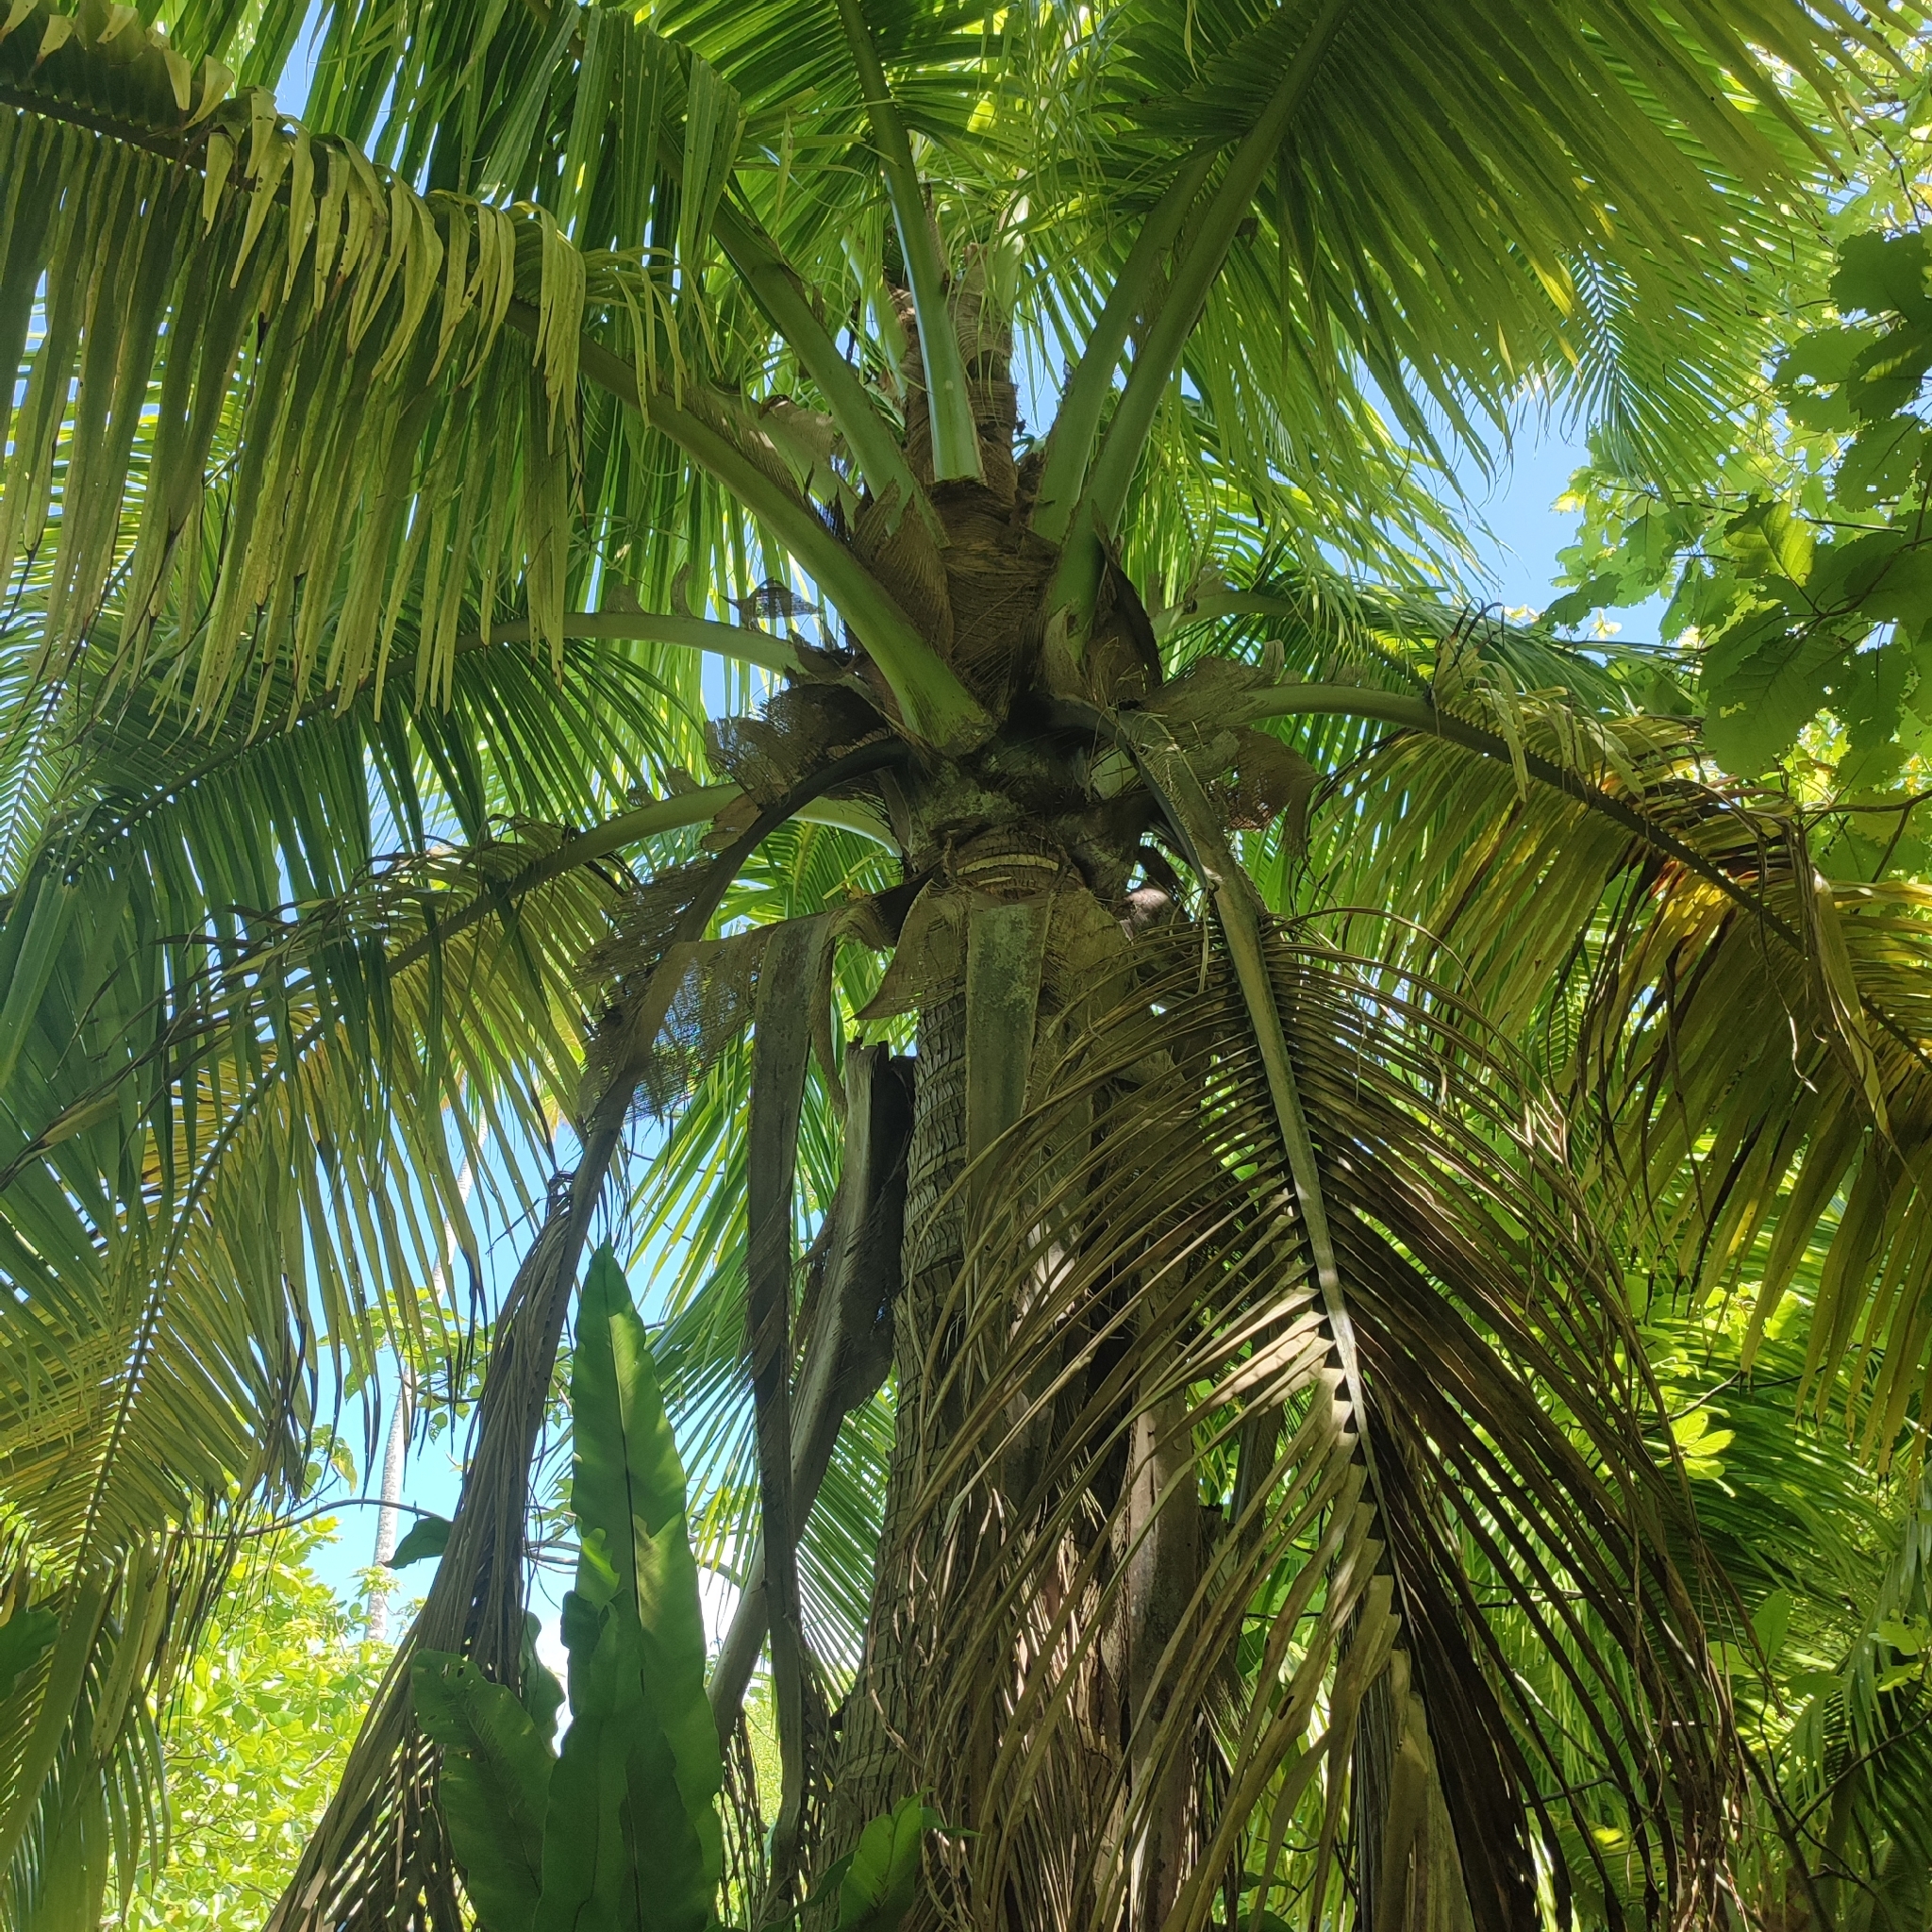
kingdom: Plantae
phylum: Tracheophyta
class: Liliopsida
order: Arecales
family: Arecaceae
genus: Cocos
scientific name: Cocos nucifera
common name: Coconut palm
